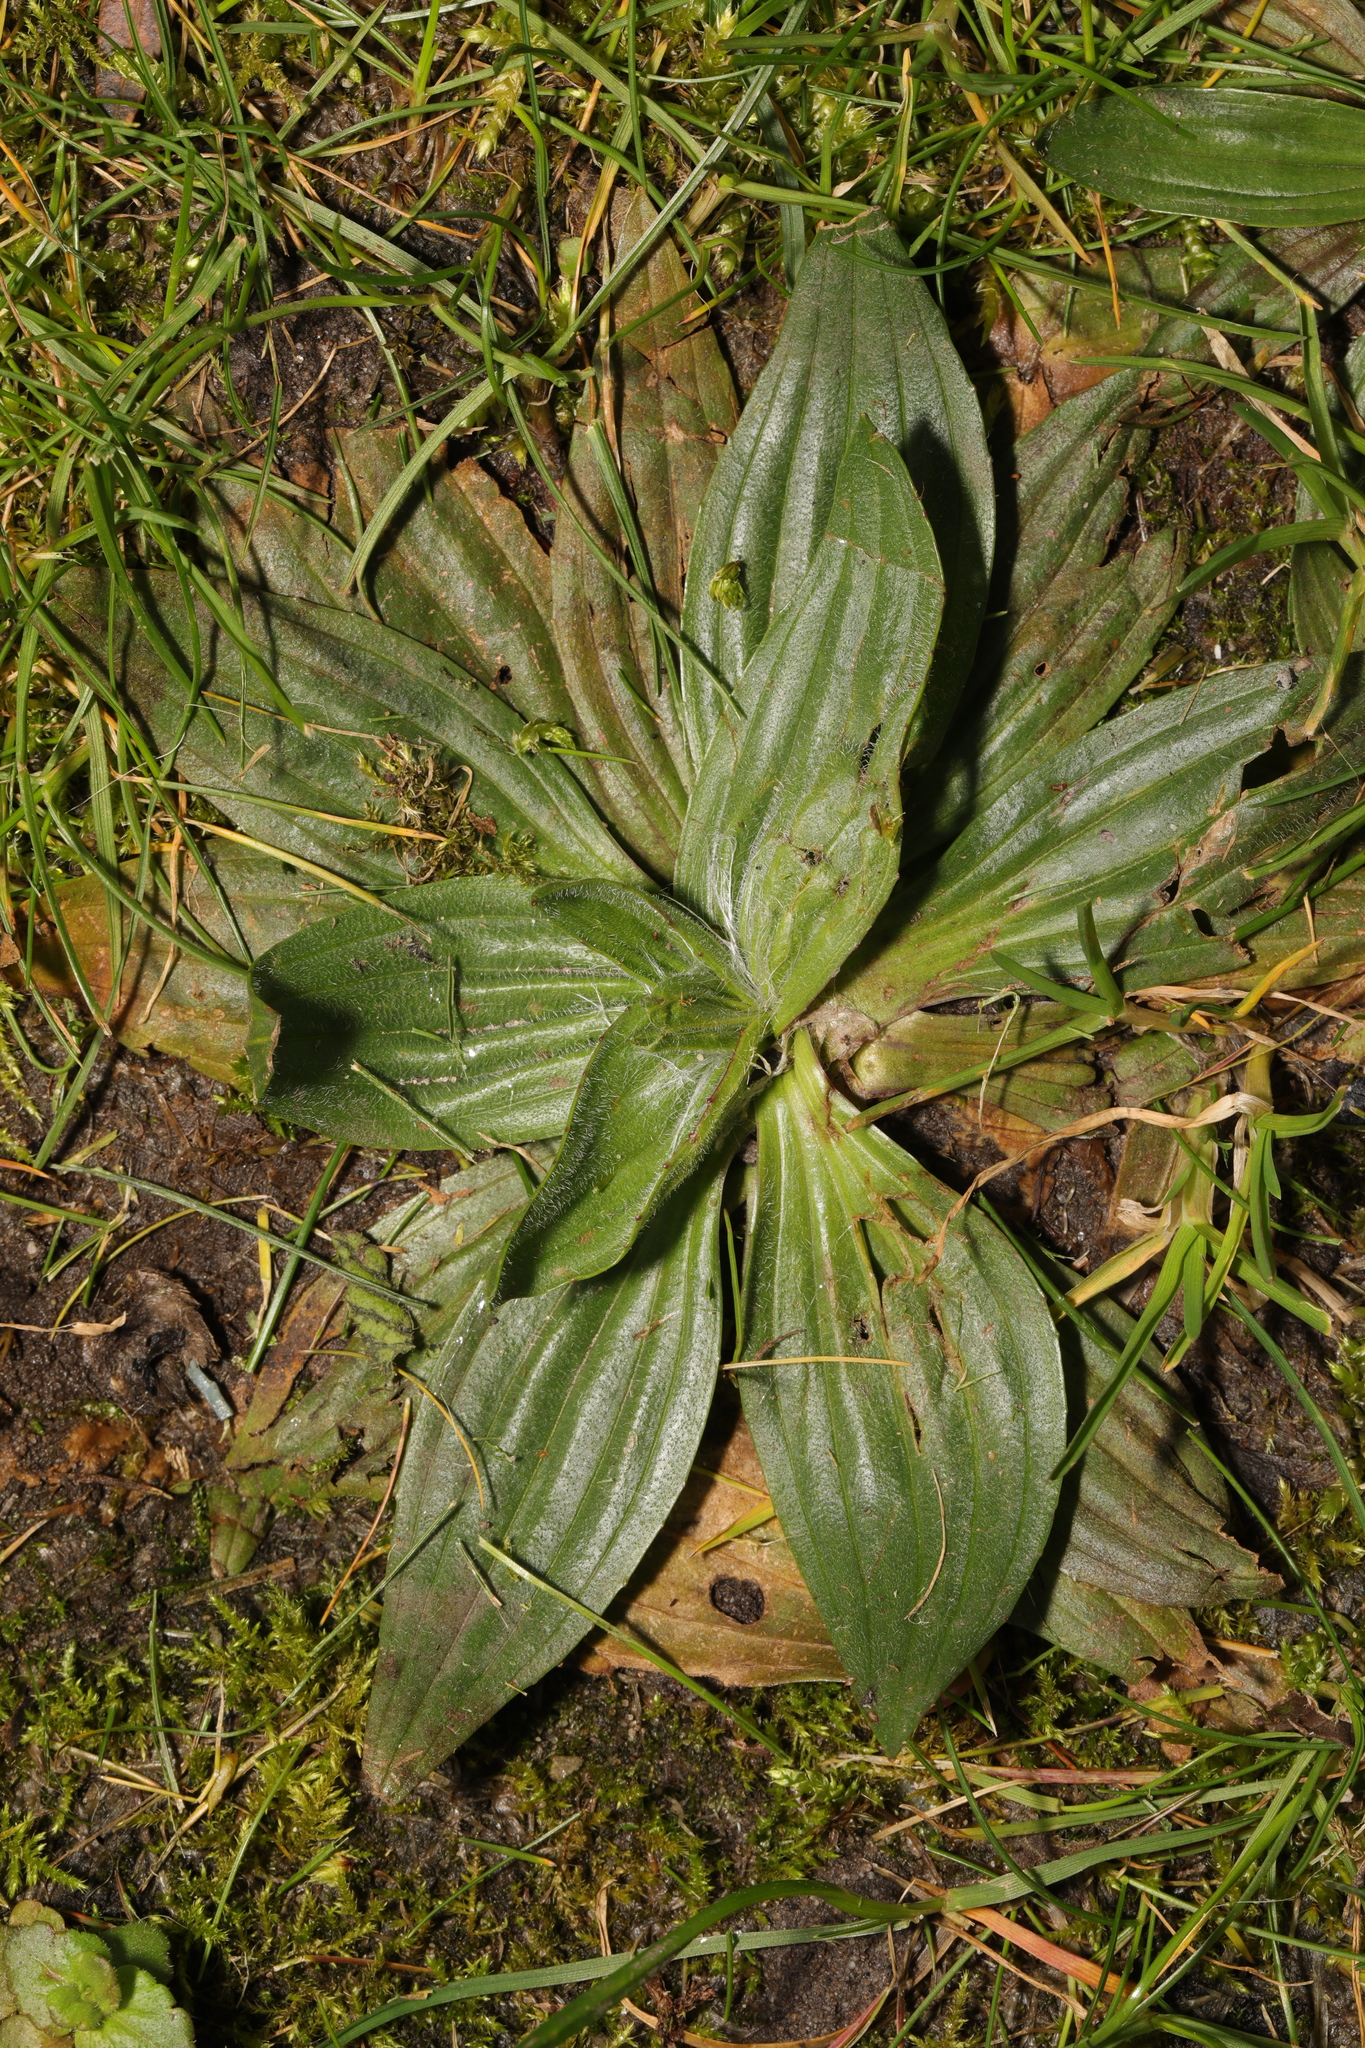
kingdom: Plantae
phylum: Tracheophyta
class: Magnoliopsida
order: Lamiales
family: Plantaginaceae
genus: Plantago
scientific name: Plantago lanceolata
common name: Ribwort plantain
